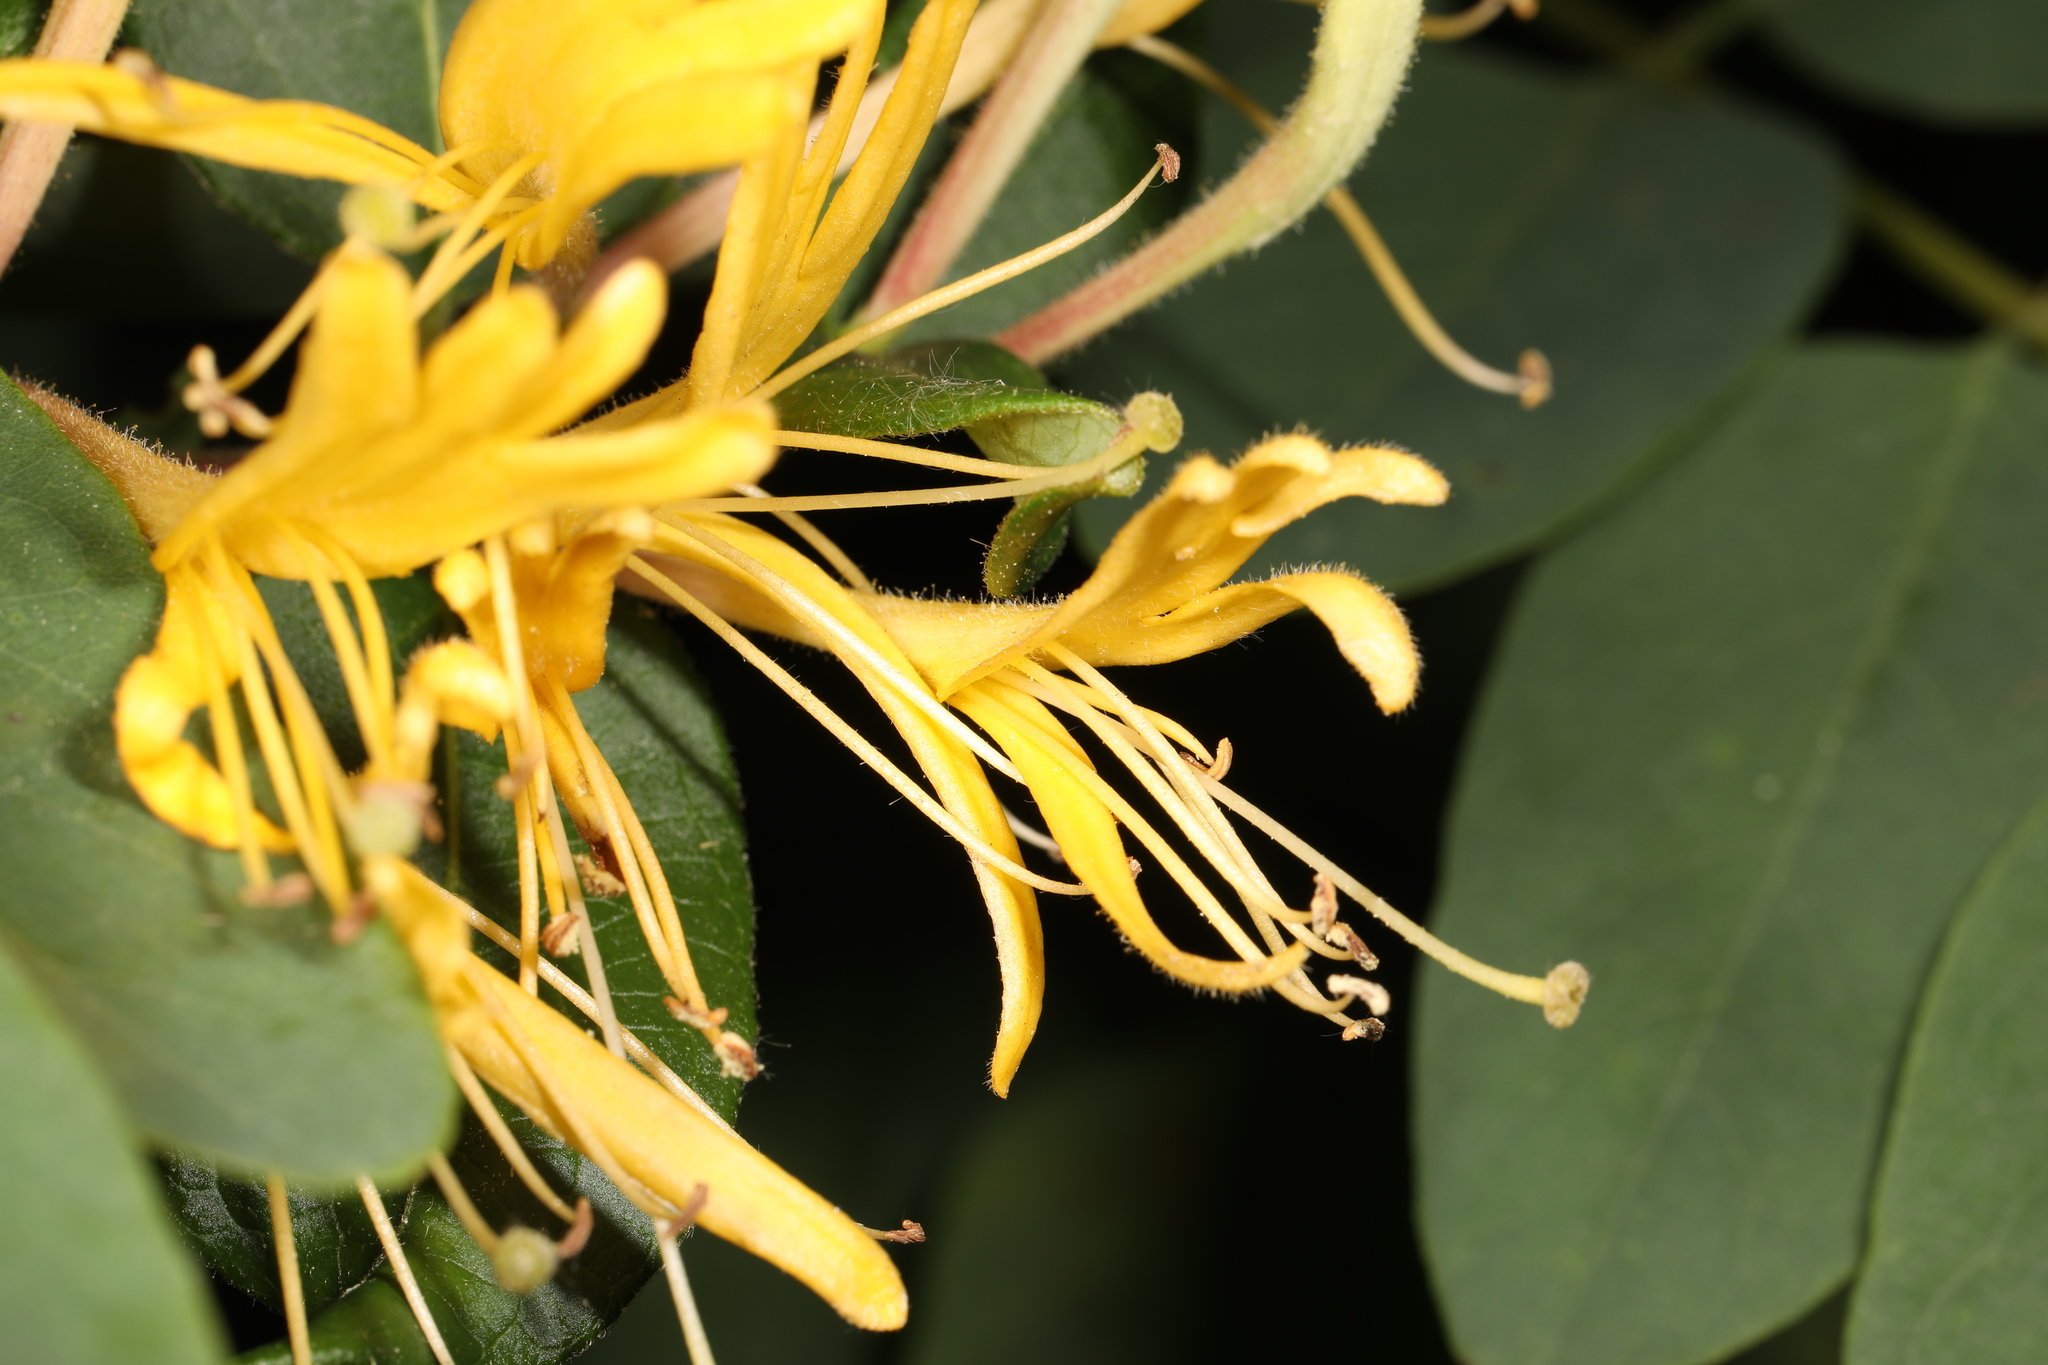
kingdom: Plantae
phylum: Tracheophyta
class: Magnoliopsida
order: Dipsacales
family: Caprifoliaceae
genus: Lonicera
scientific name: Lonicera japonica
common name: Japanese honeysuckle
